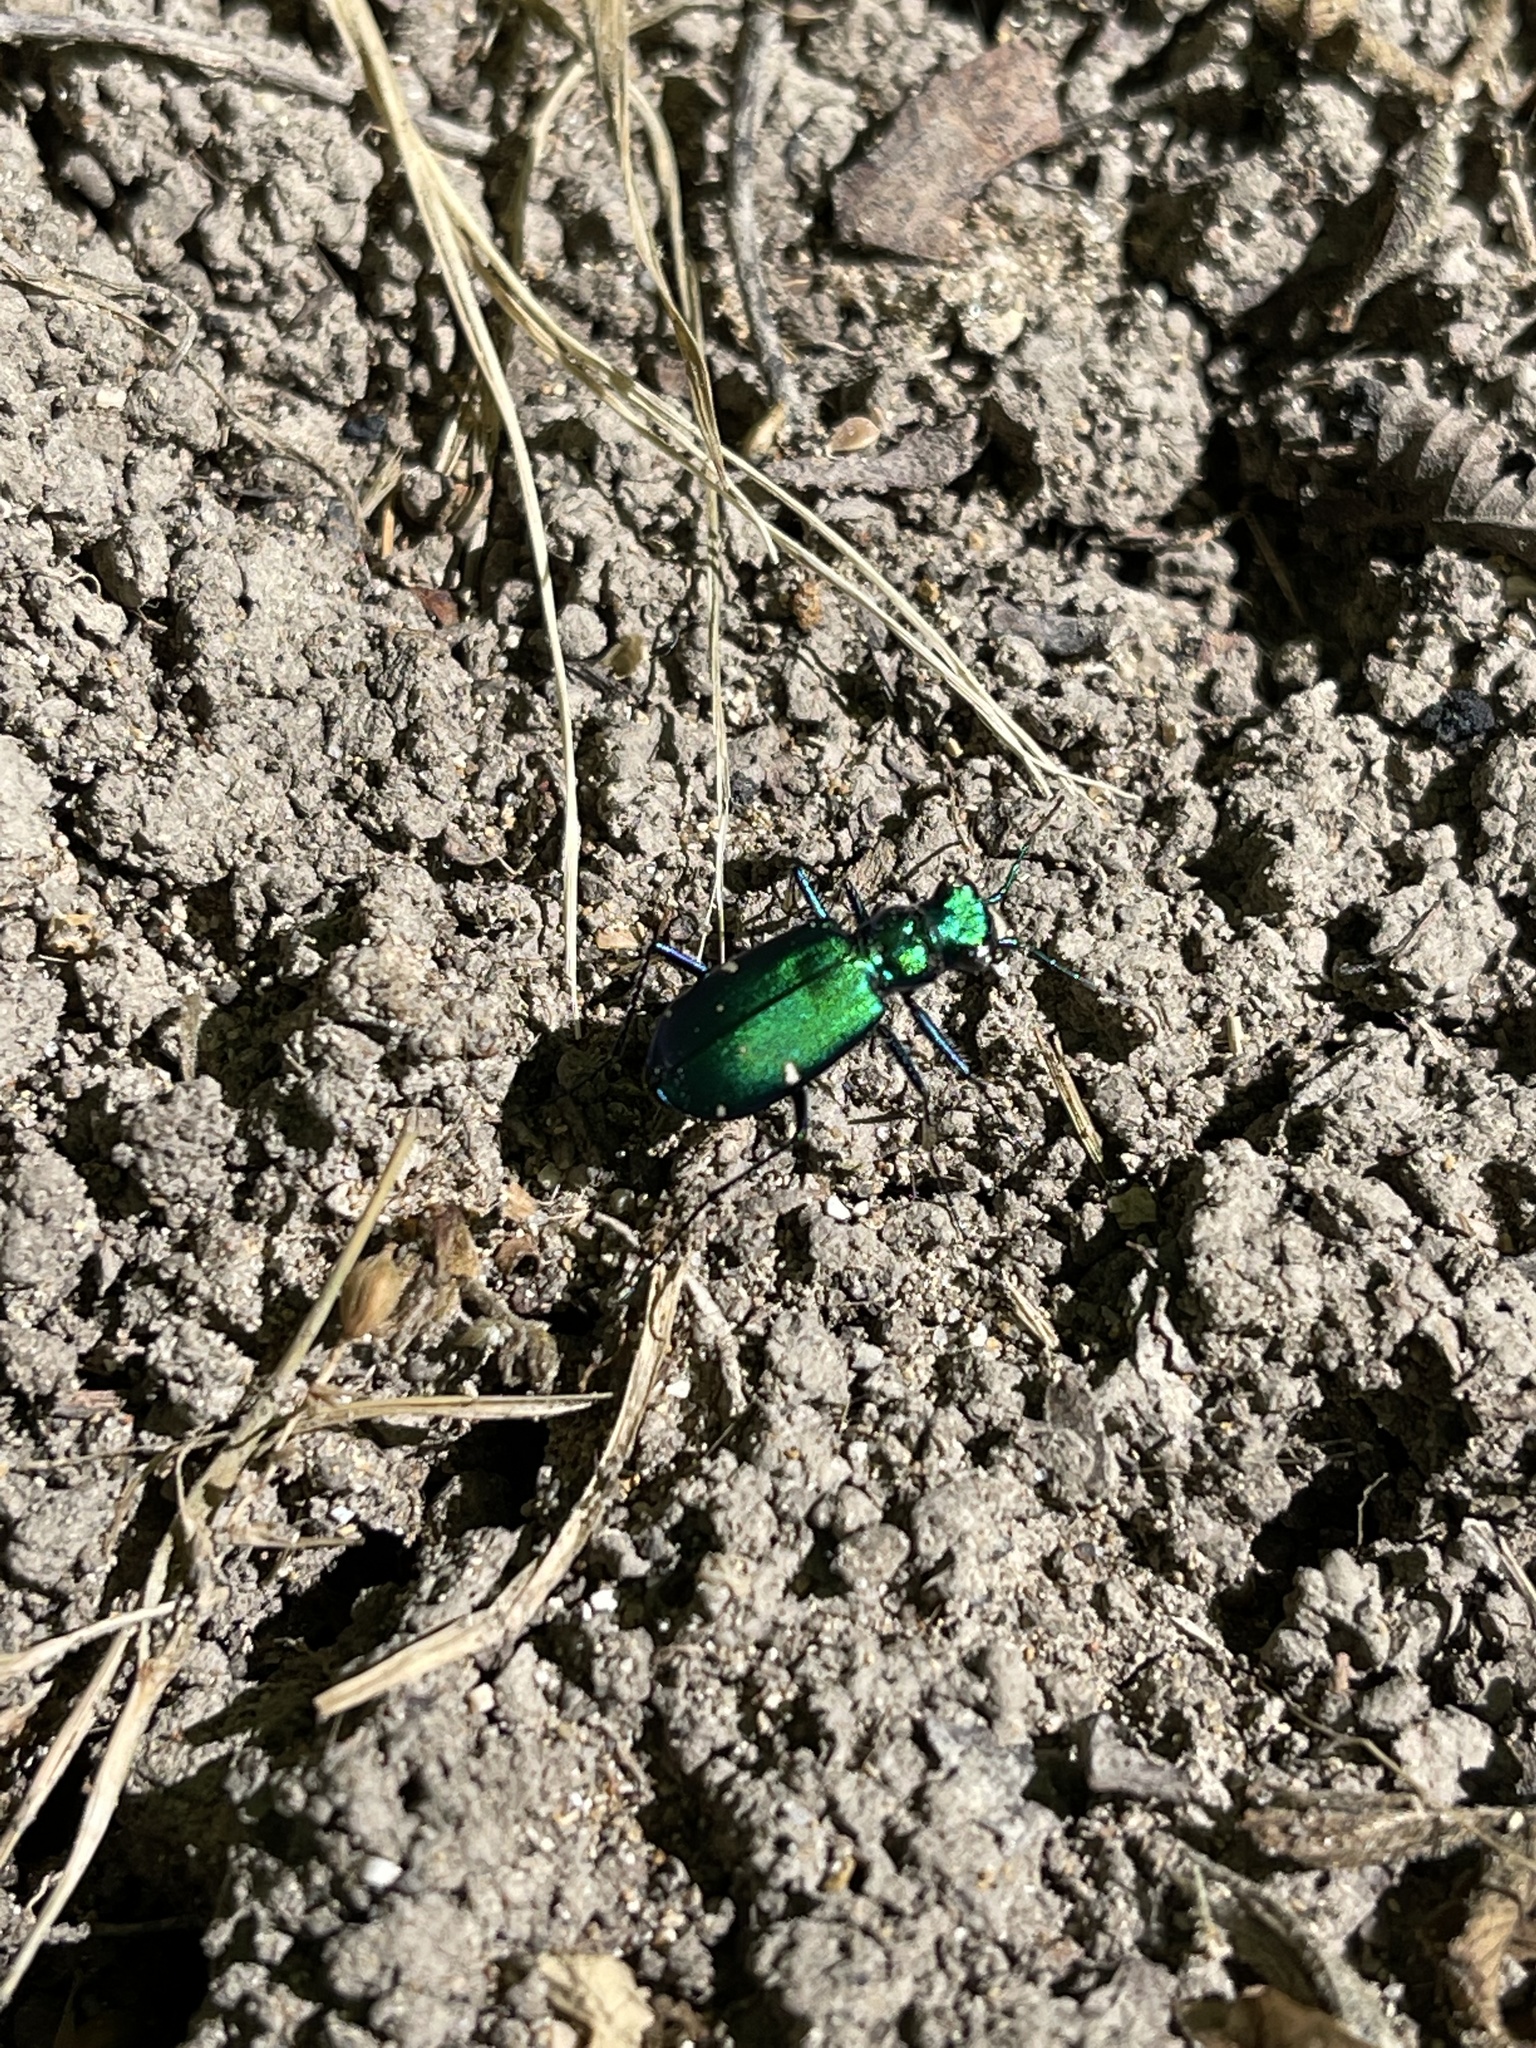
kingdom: Animalia
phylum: Arthropoda
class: Insecta
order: Coleoptera
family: Carabidae
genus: Cicindela
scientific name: Cicindela sexguttata
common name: Six-spotted tiger beetle
